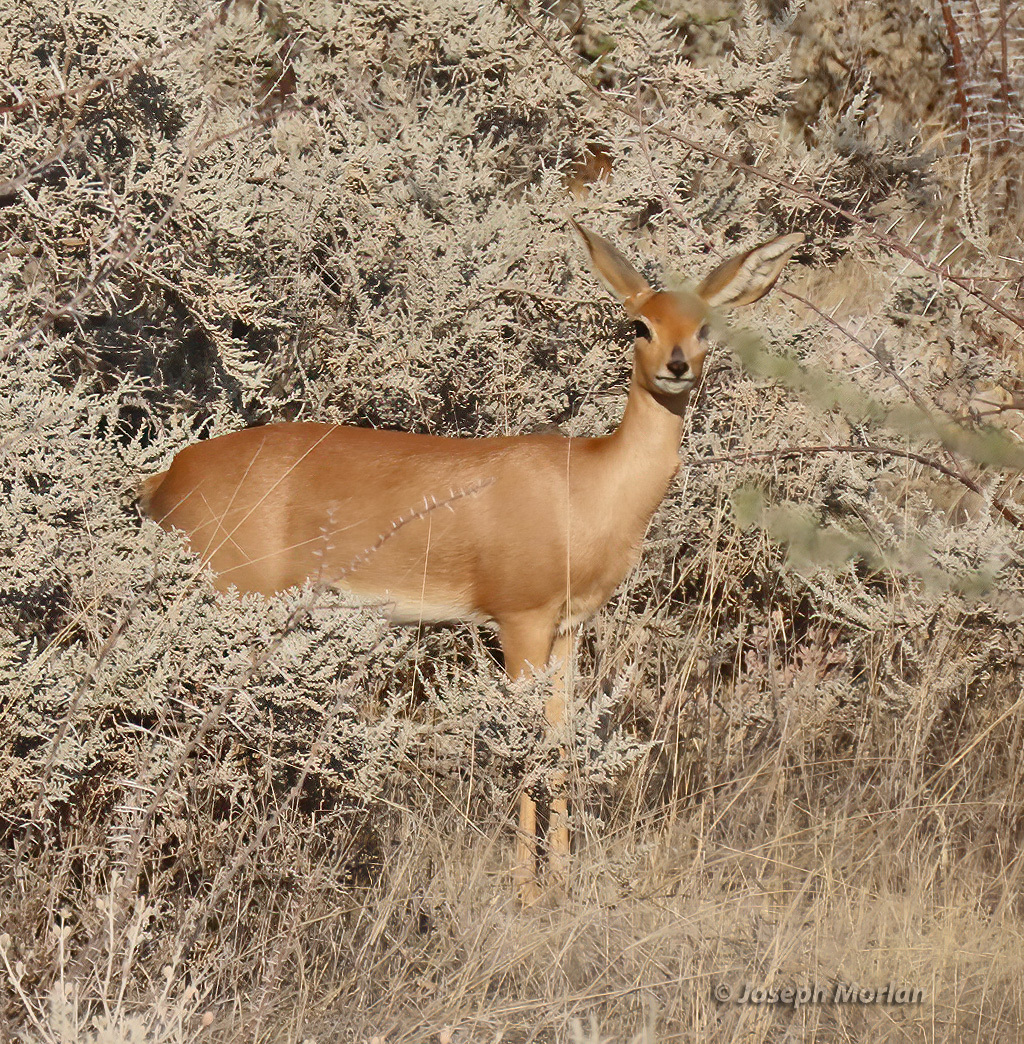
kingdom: Animalia
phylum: Chordata
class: Mammalia
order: Artiodactyla
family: Bovidae
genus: Raphicerus
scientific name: Raphicerus campestris
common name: Steenbok
